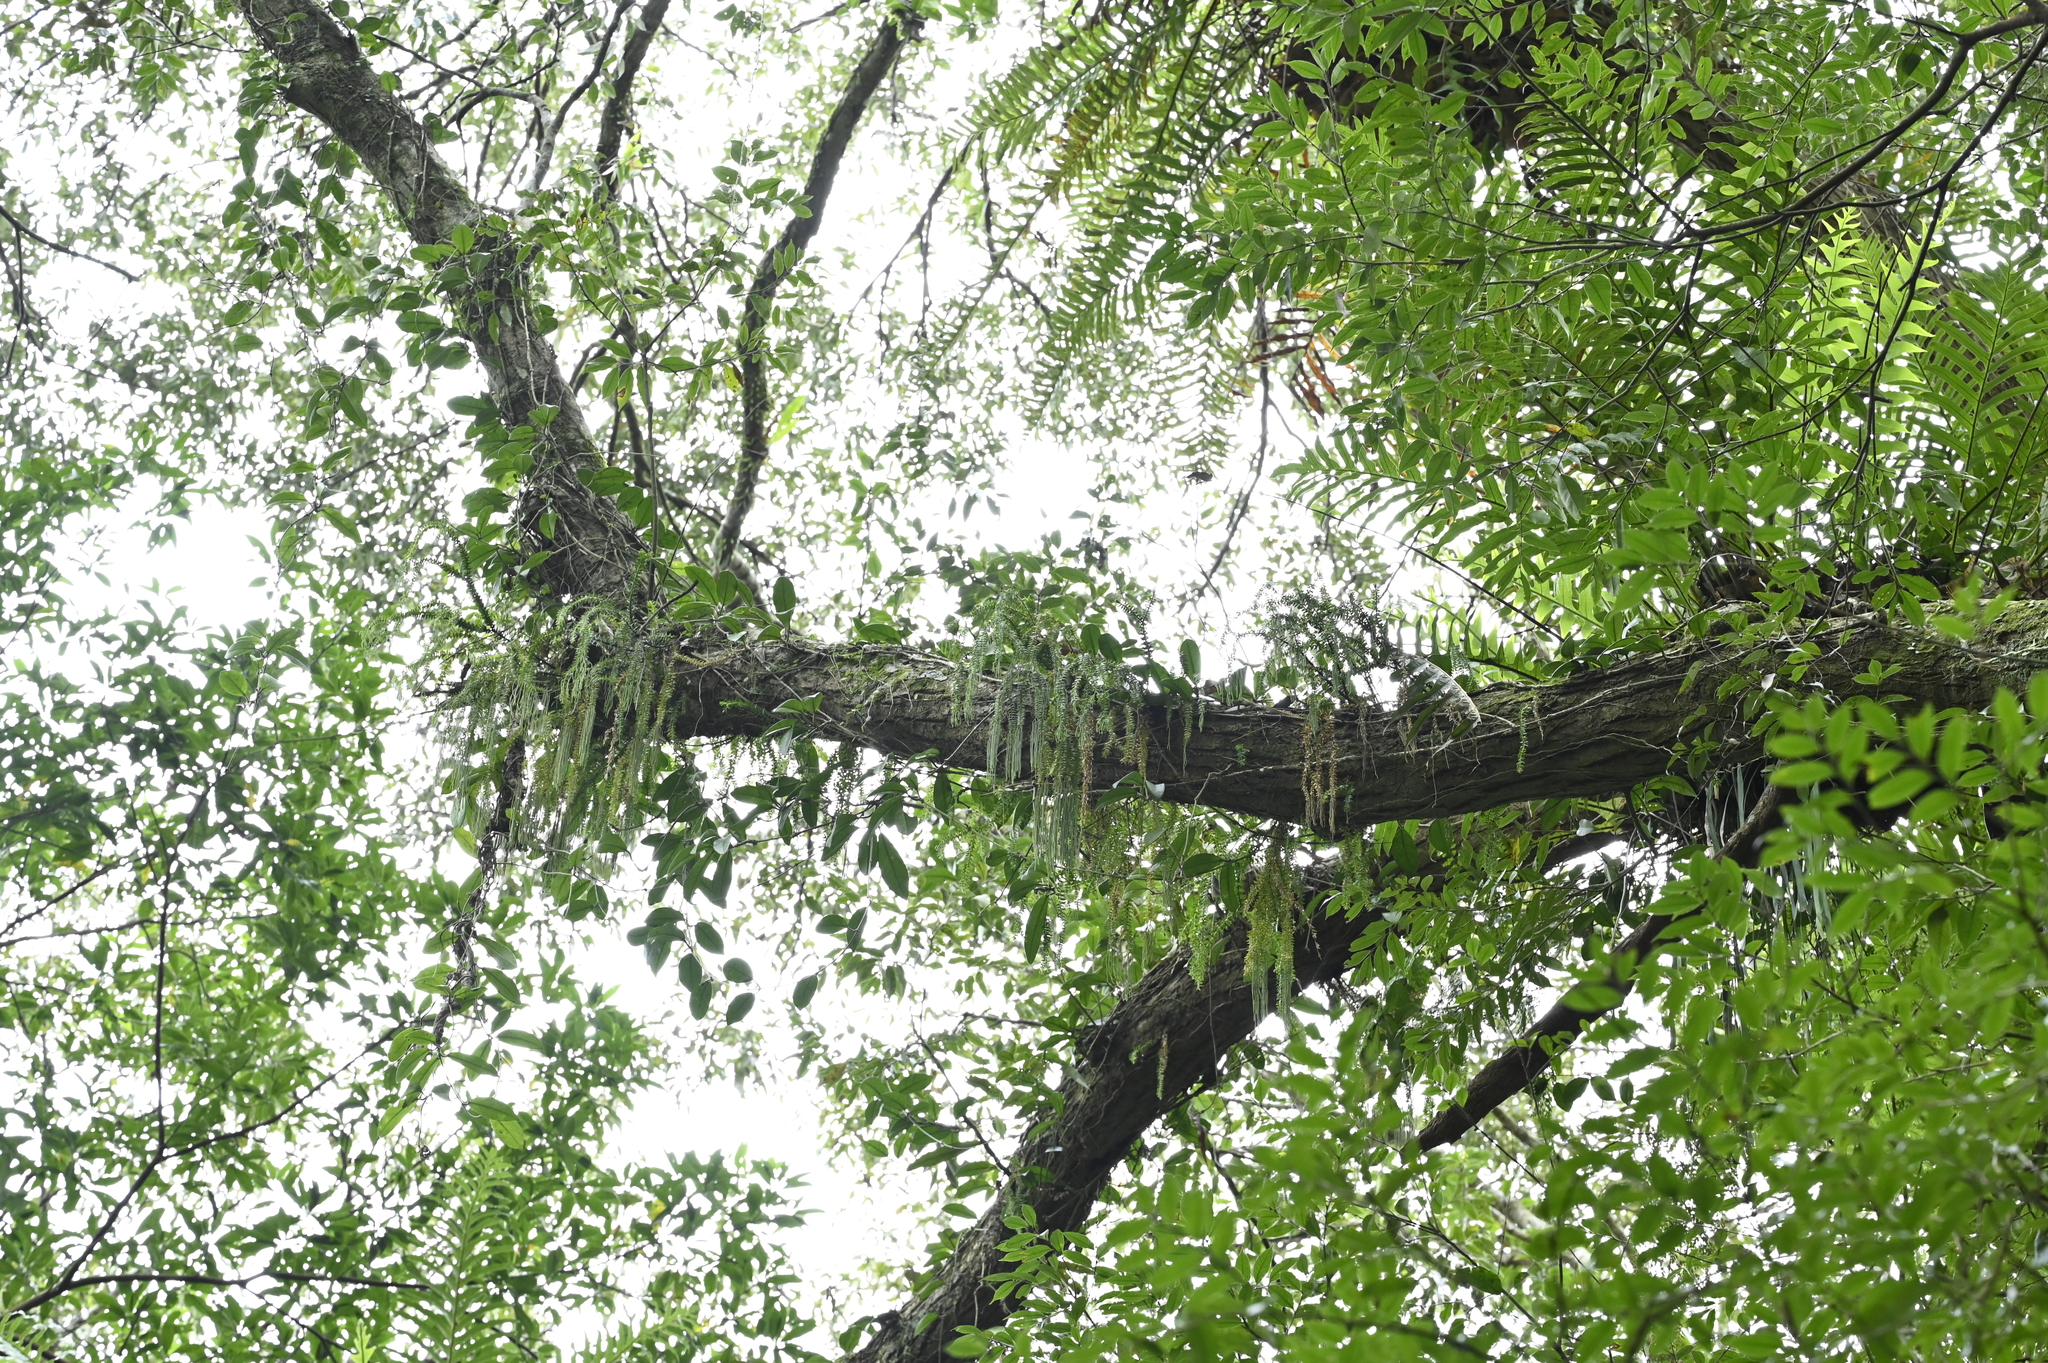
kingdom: Plantae
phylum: Tracheophyta
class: Lycopodiopsida
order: Lycopodiales
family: Lycopodiaceae
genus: Phlegmariurus
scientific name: Phlegmariurus phlegmaria
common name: Coarse tassel-fern
